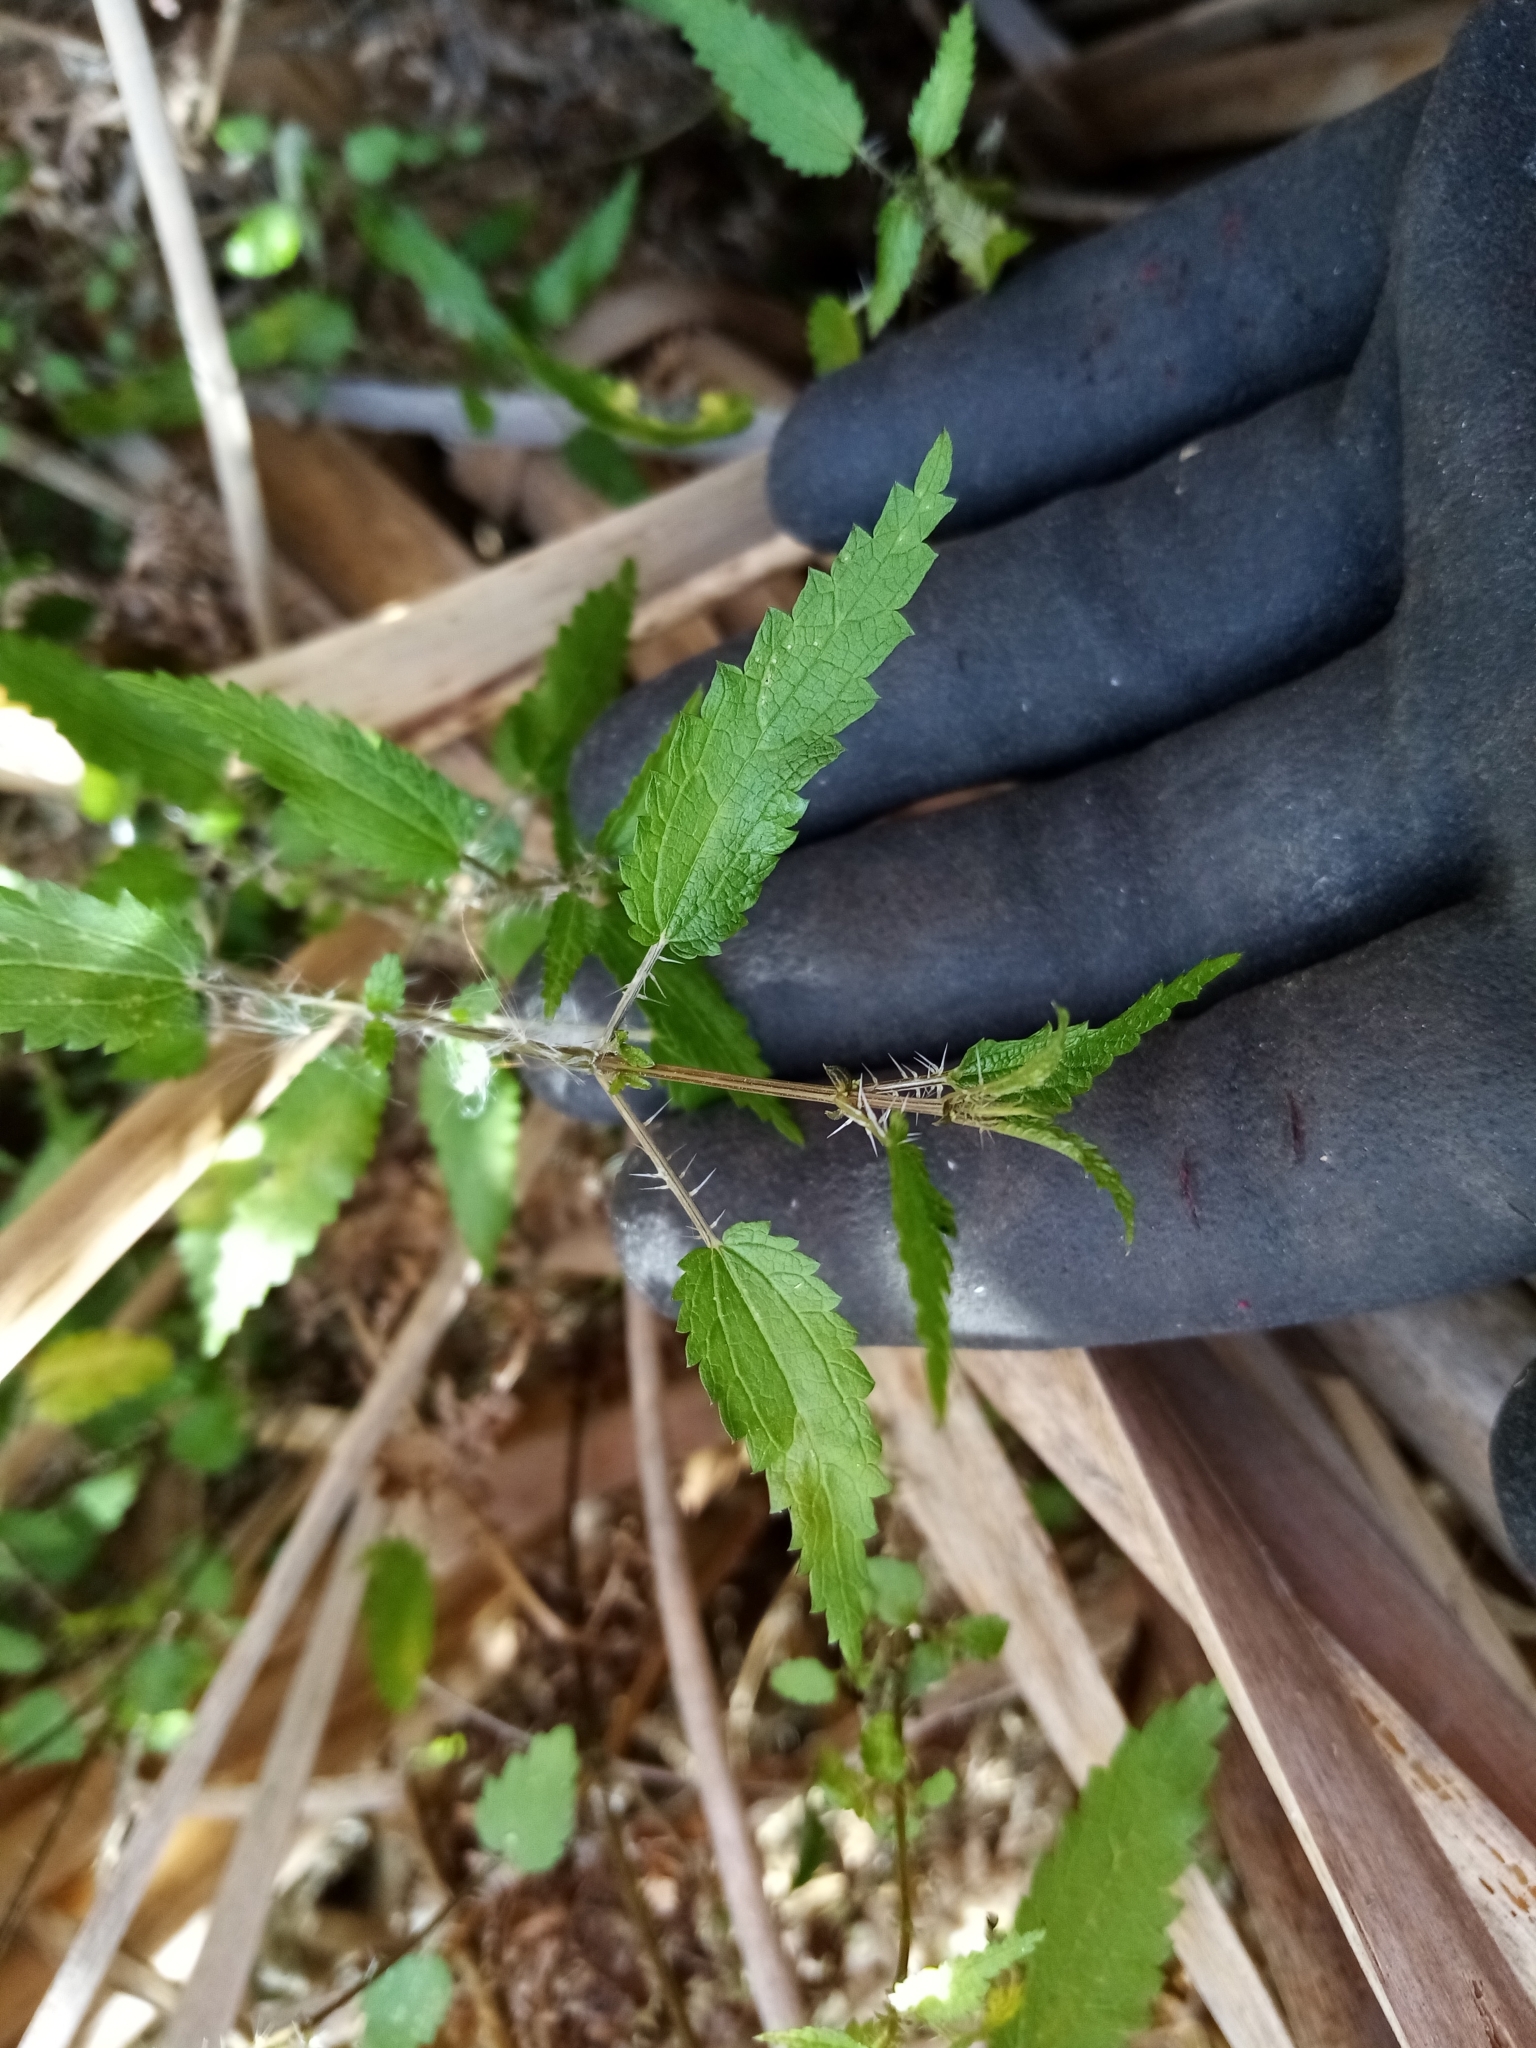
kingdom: Plantae
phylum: Tracheophyta
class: Magnoliopsida
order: Rosales
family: Urticaceae
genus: Urtica
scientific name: Urtica perconfusa
